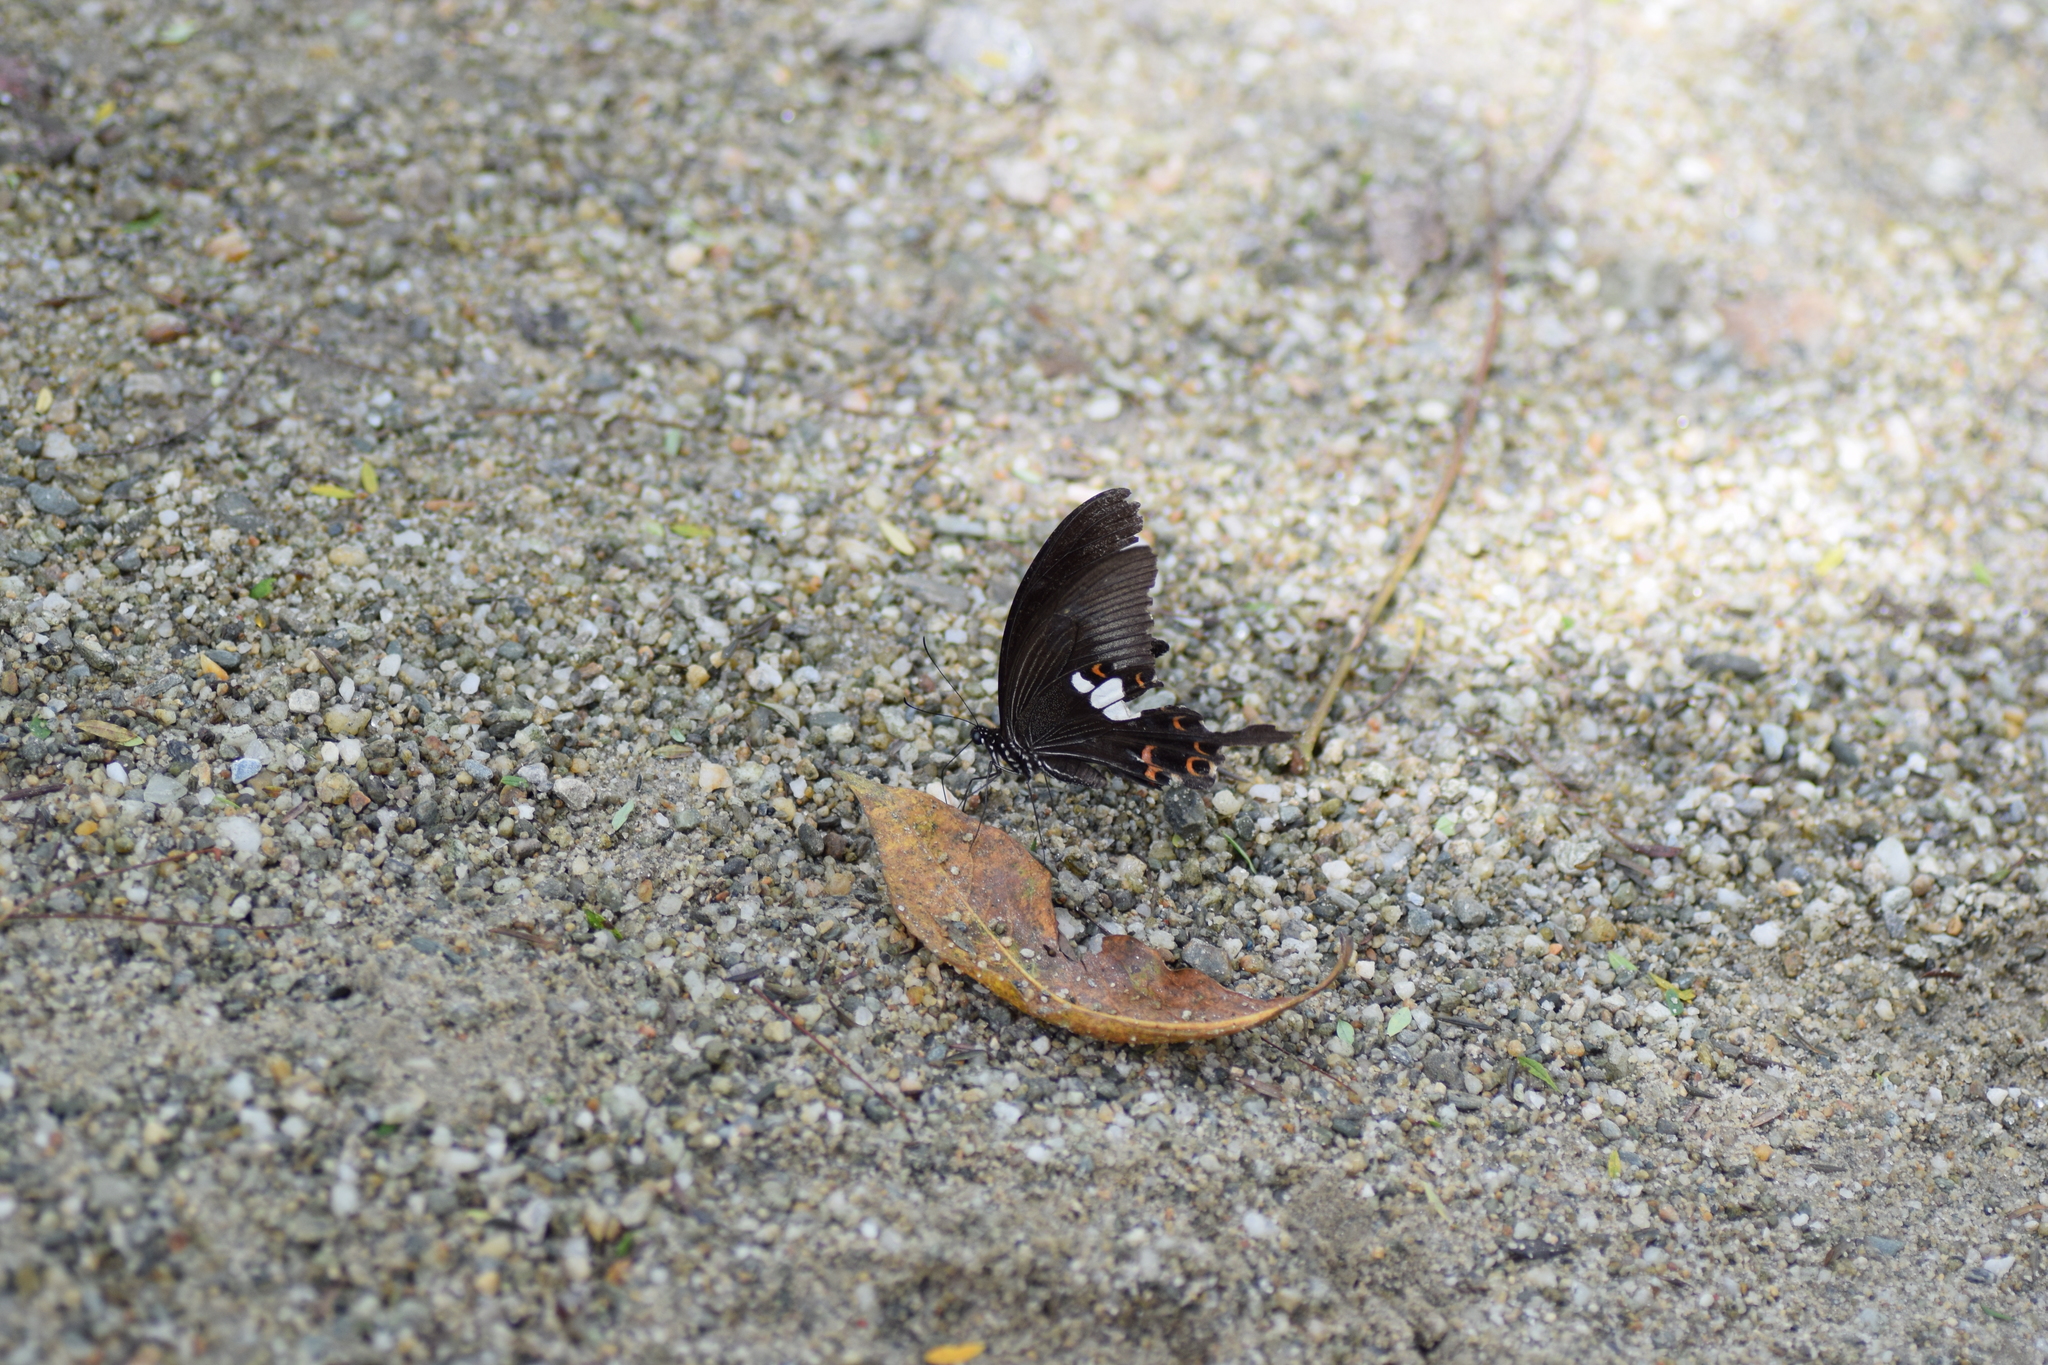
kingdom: Animalia
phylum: Arthropoda
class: Insecta
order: Lepidoptera
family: Papilionidae
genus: Papilio
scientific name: Papilio helenus
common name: Red helen
